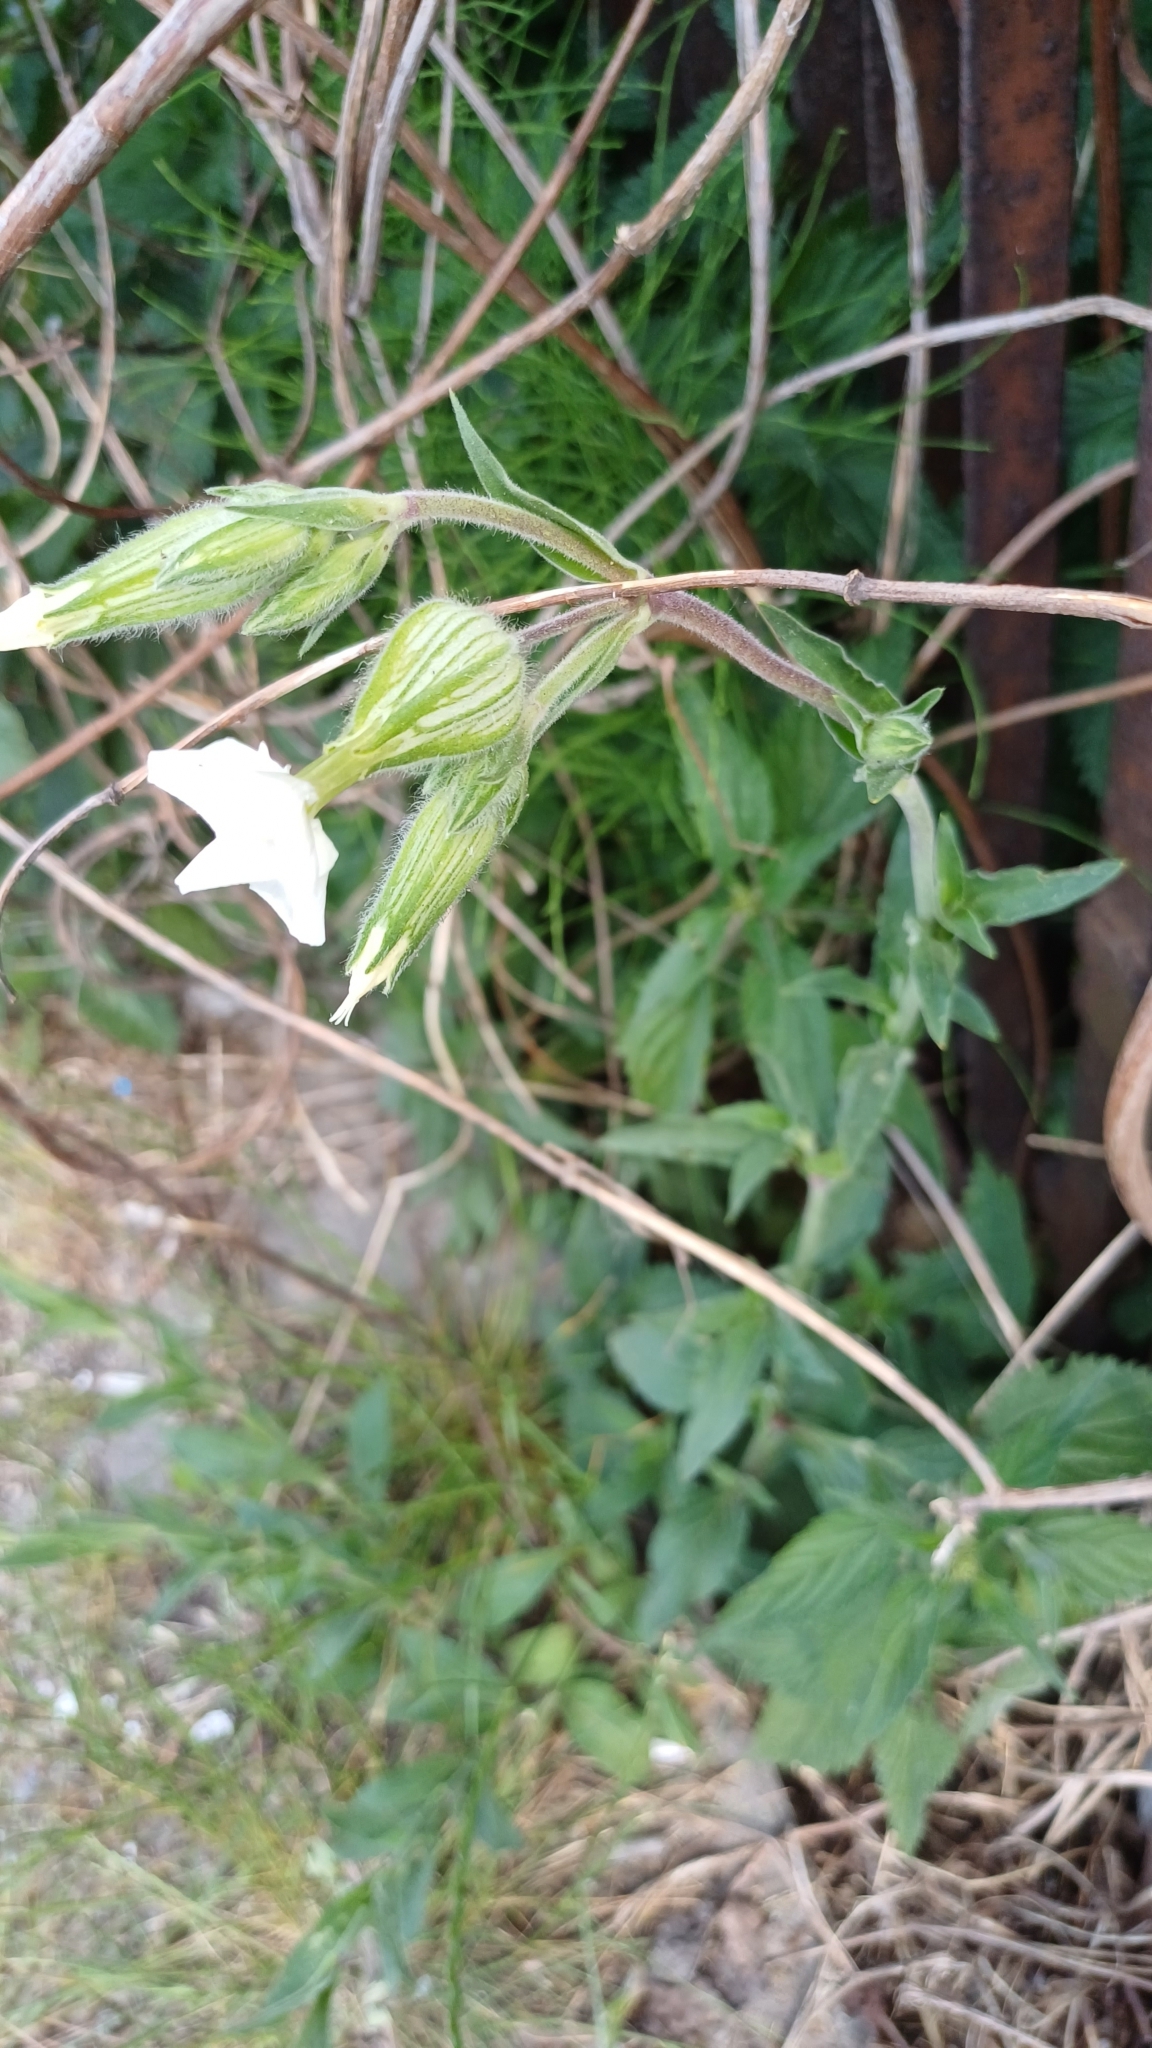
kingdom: Plantae
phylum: Tracheophyta
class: Magnoliopsida
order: Caryophyllales
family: Caryophyllaceae
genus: Silene
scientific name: Silene latifolia
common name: White campion
